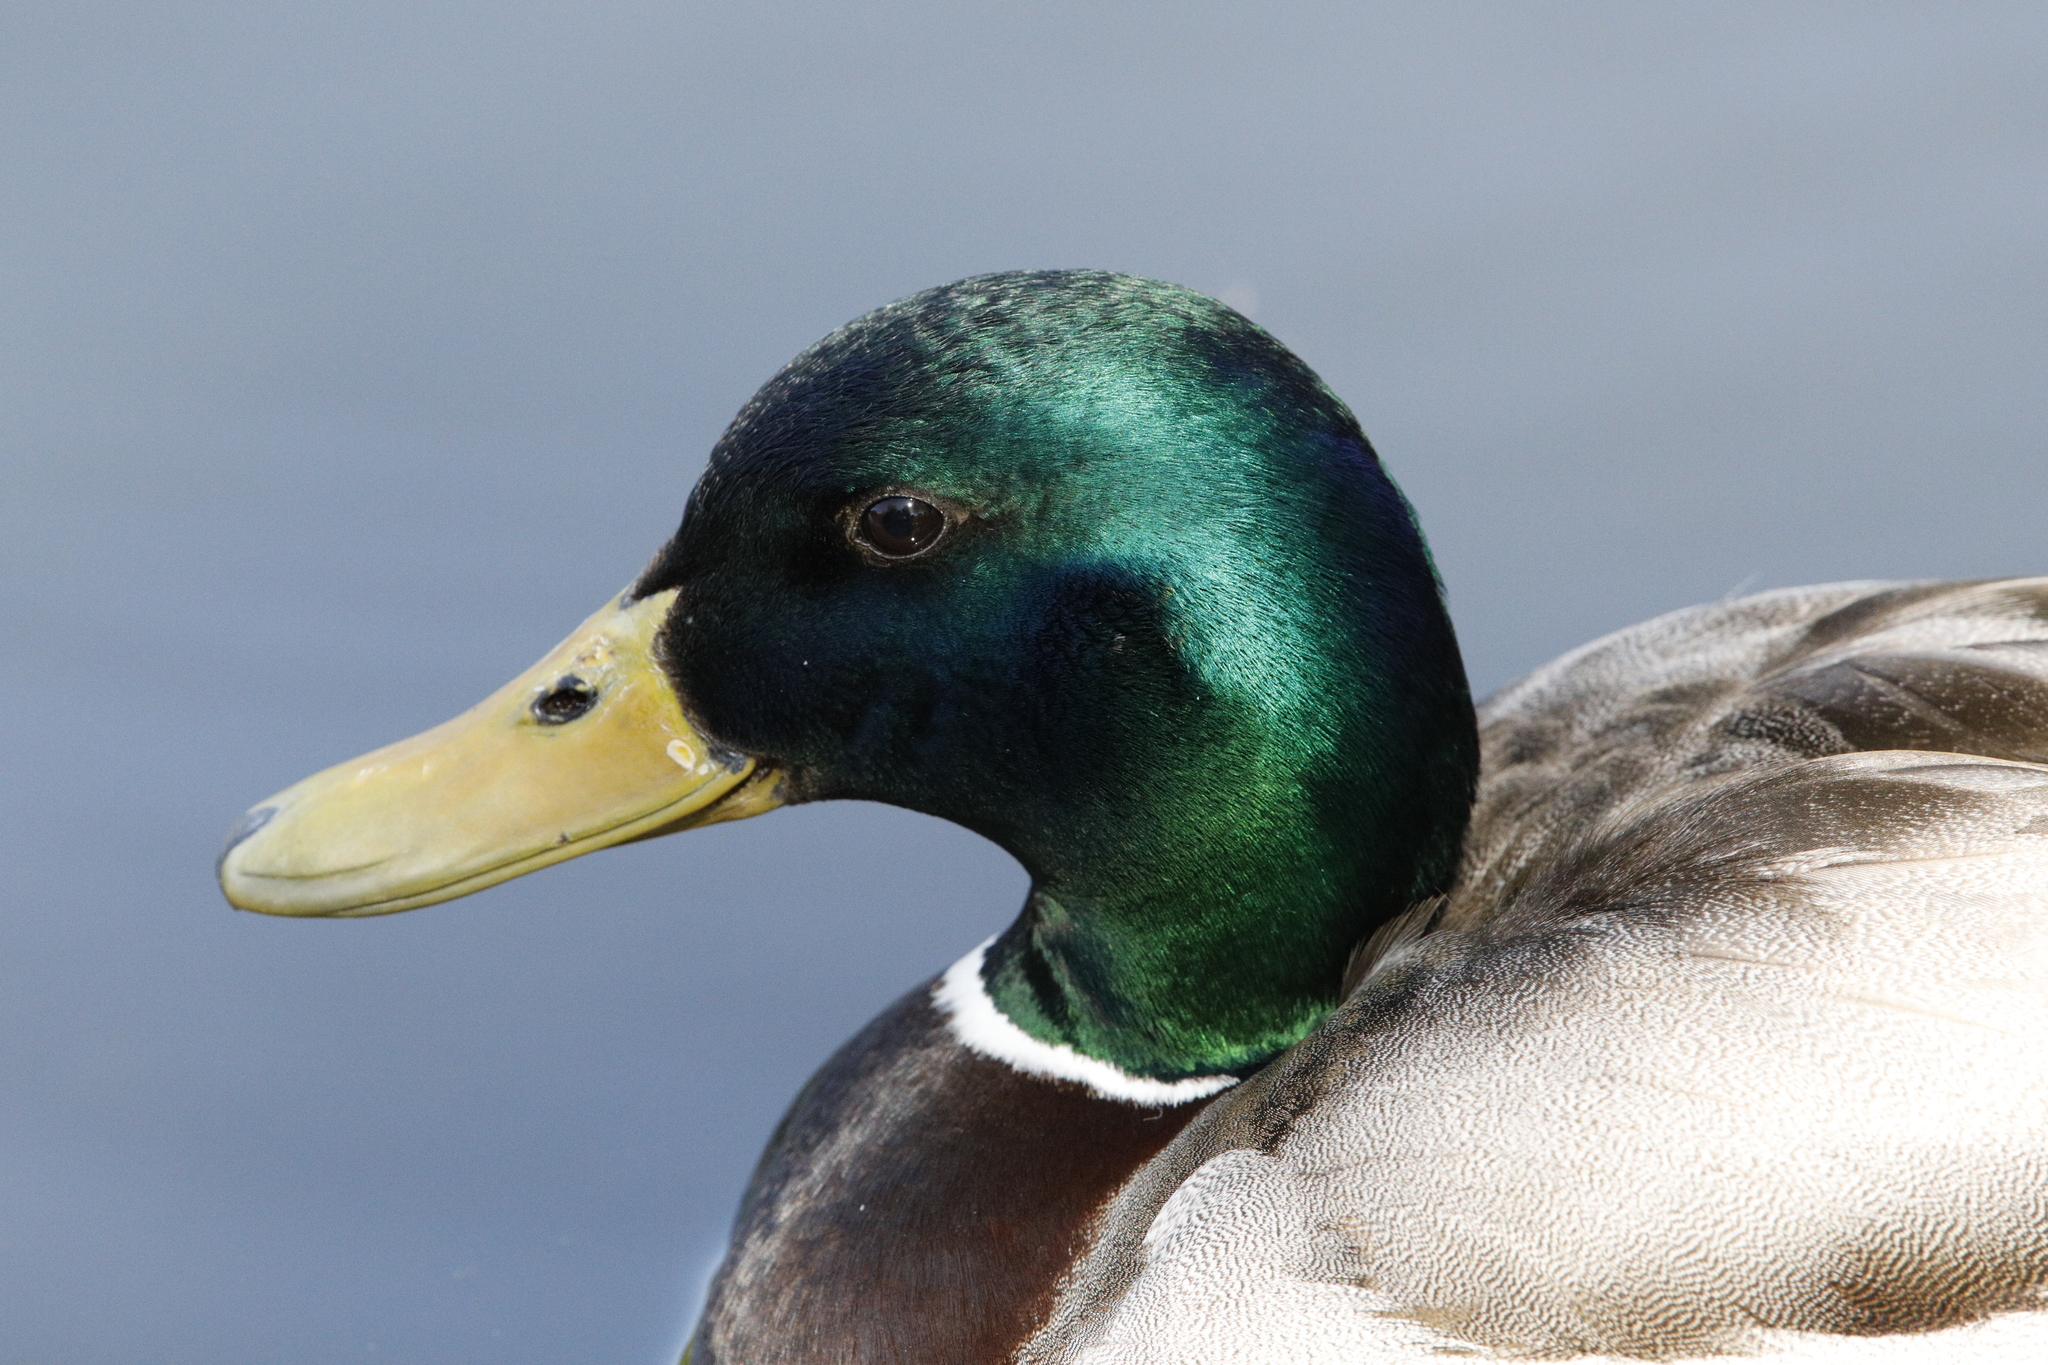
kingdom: Animalia
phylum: Chordata
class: Aves
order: Anseriformes
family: Anatidae
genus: Anas
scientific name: Anas platyrhynchos
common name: Mallard
